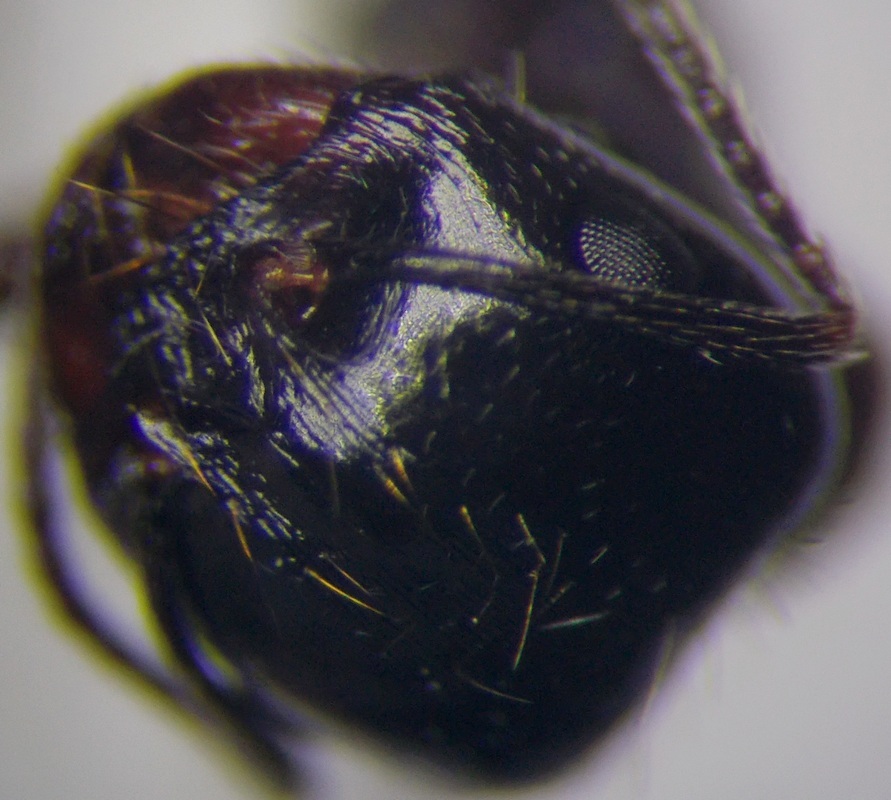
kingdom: Animalia
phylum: Arthropoda
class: Insecta
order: Hymenoptera
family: Formicidae
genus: Messor
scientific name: Messor denticulatus
